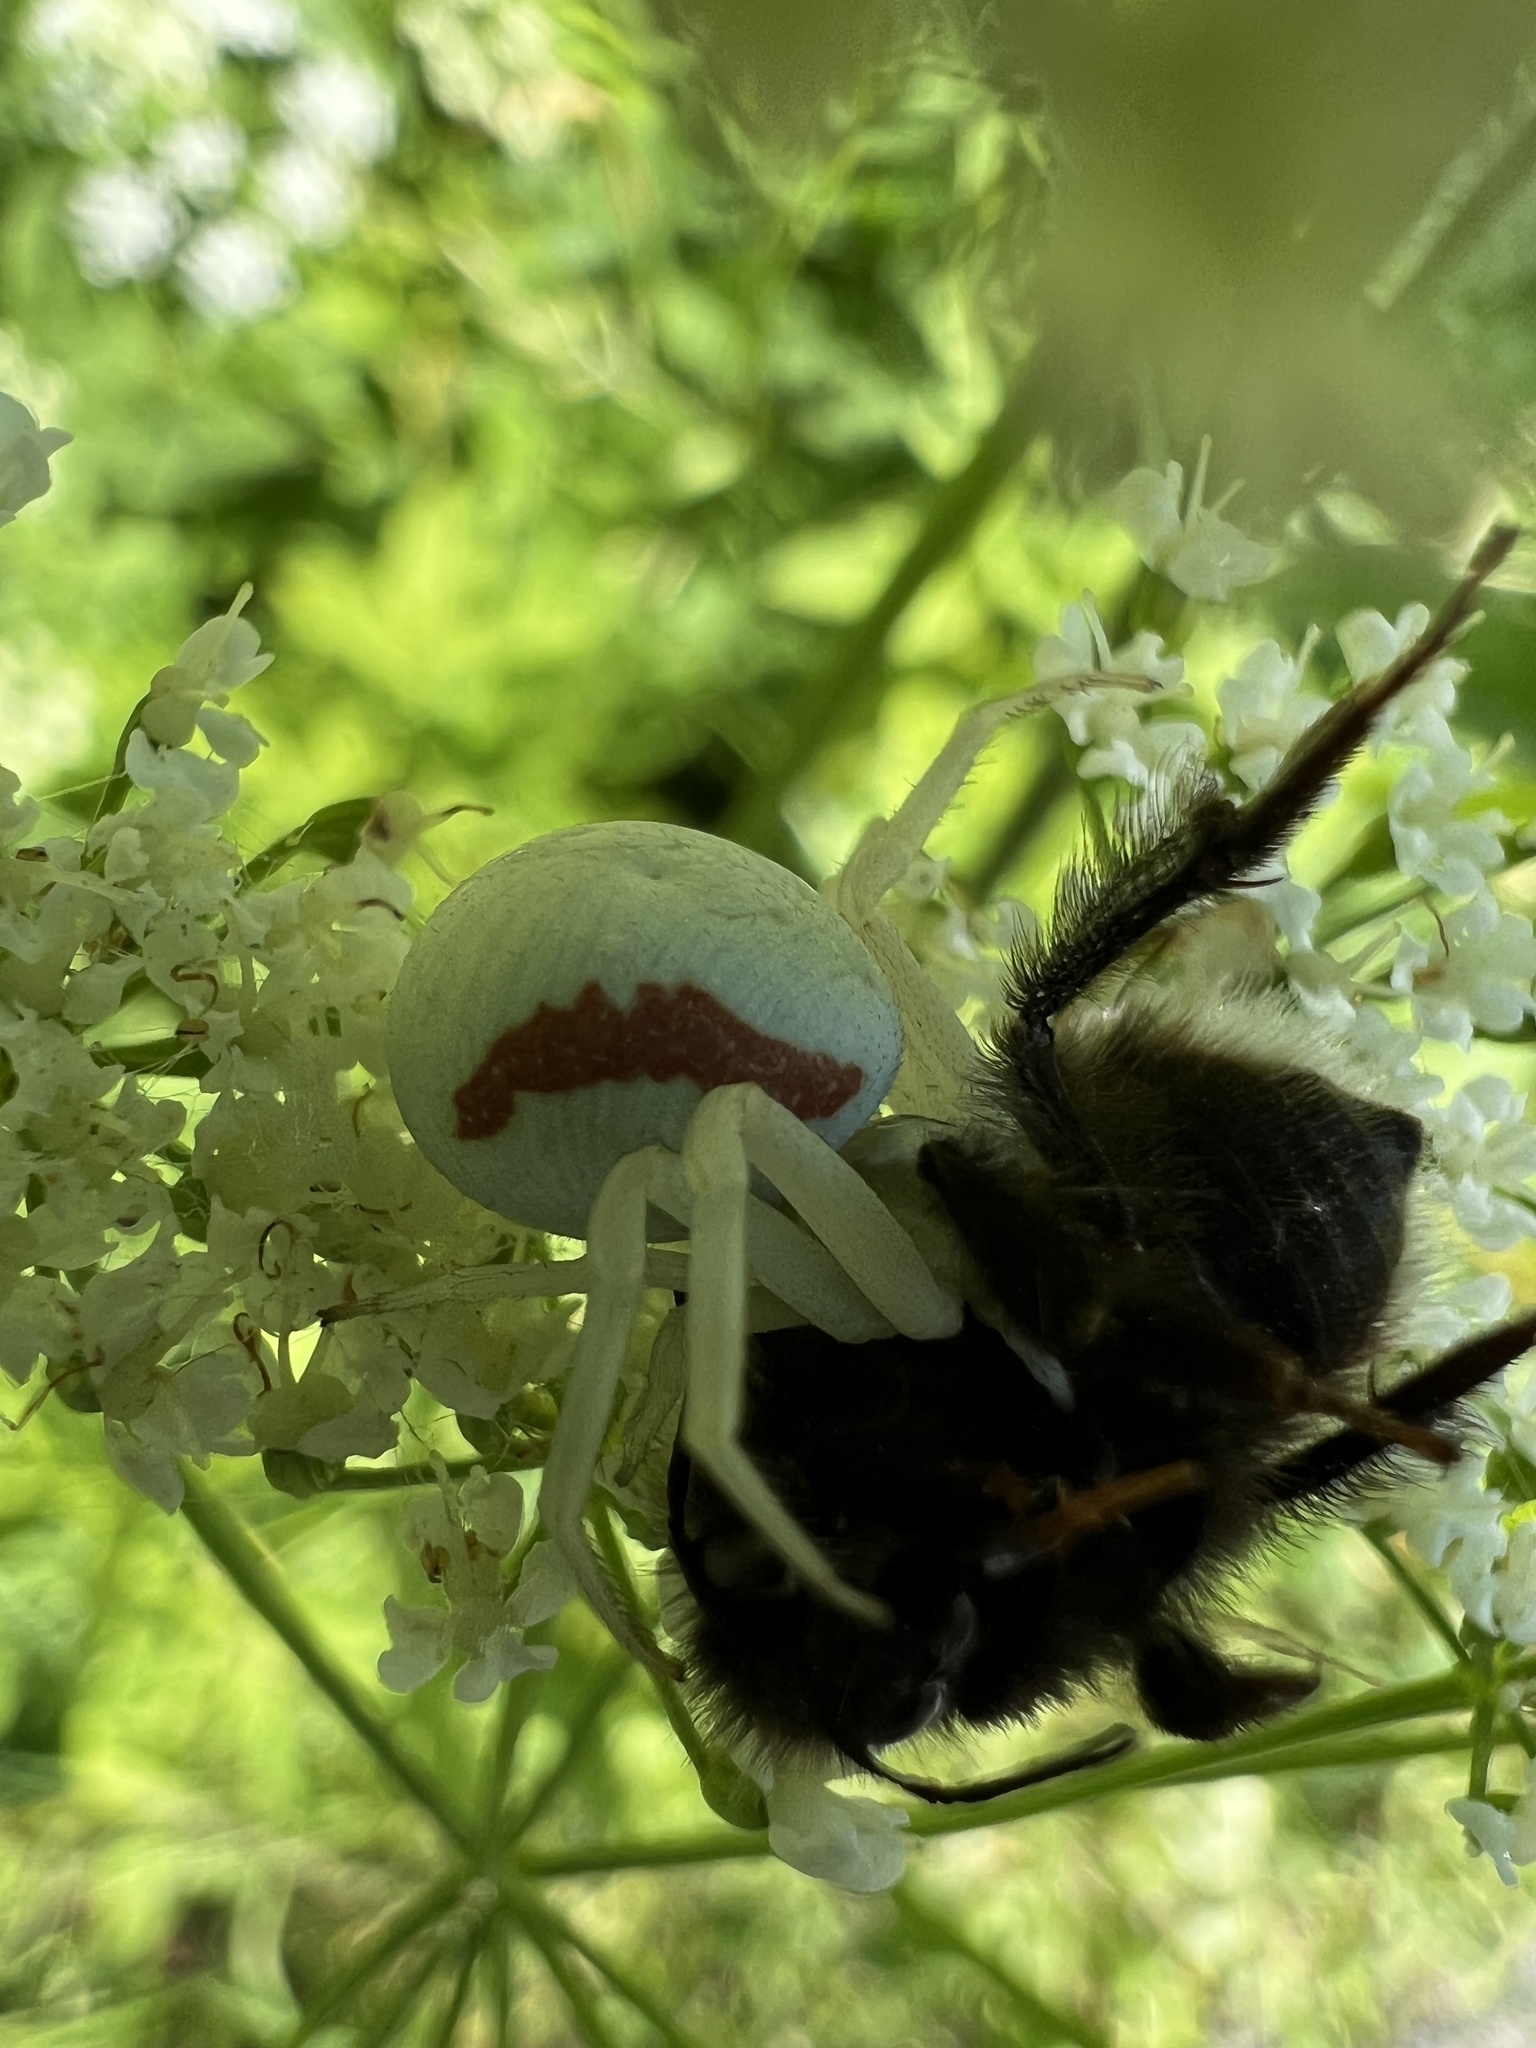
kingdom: Animalia
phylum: Arthropoda
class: Arachnida
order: Araneae
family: Thomisidae
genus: Misumena
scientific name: Misumena vatia
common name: Goldenrod crab spider
